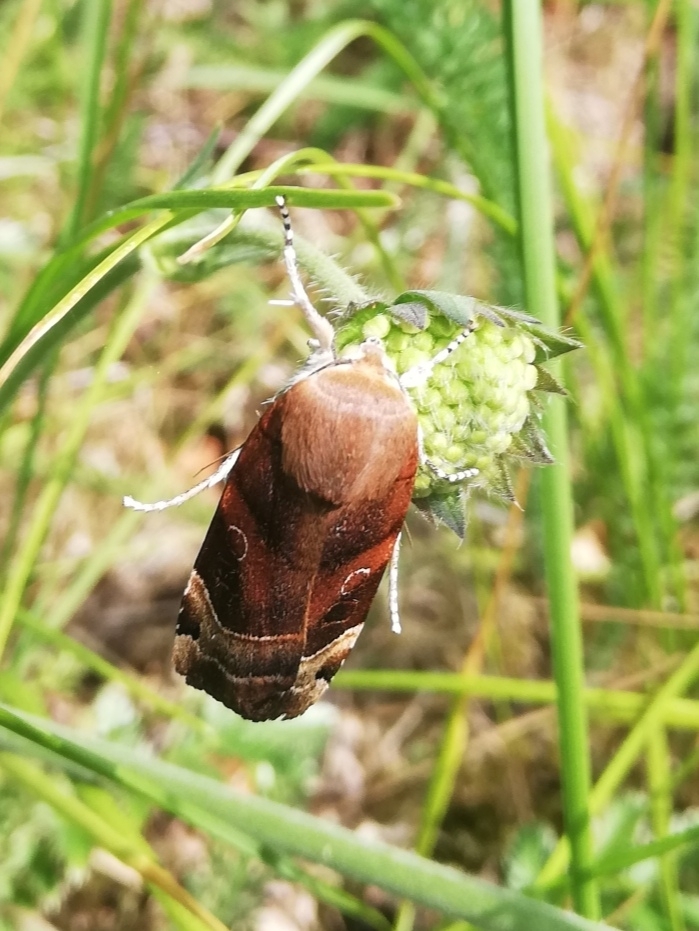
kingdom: Animalia
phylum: Arthropoda
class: Insecta
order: Lepidoptera
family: Noctuidae
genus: Noctua
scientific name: Noctua fimbriata
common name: Broad-bordered yellow underwing
